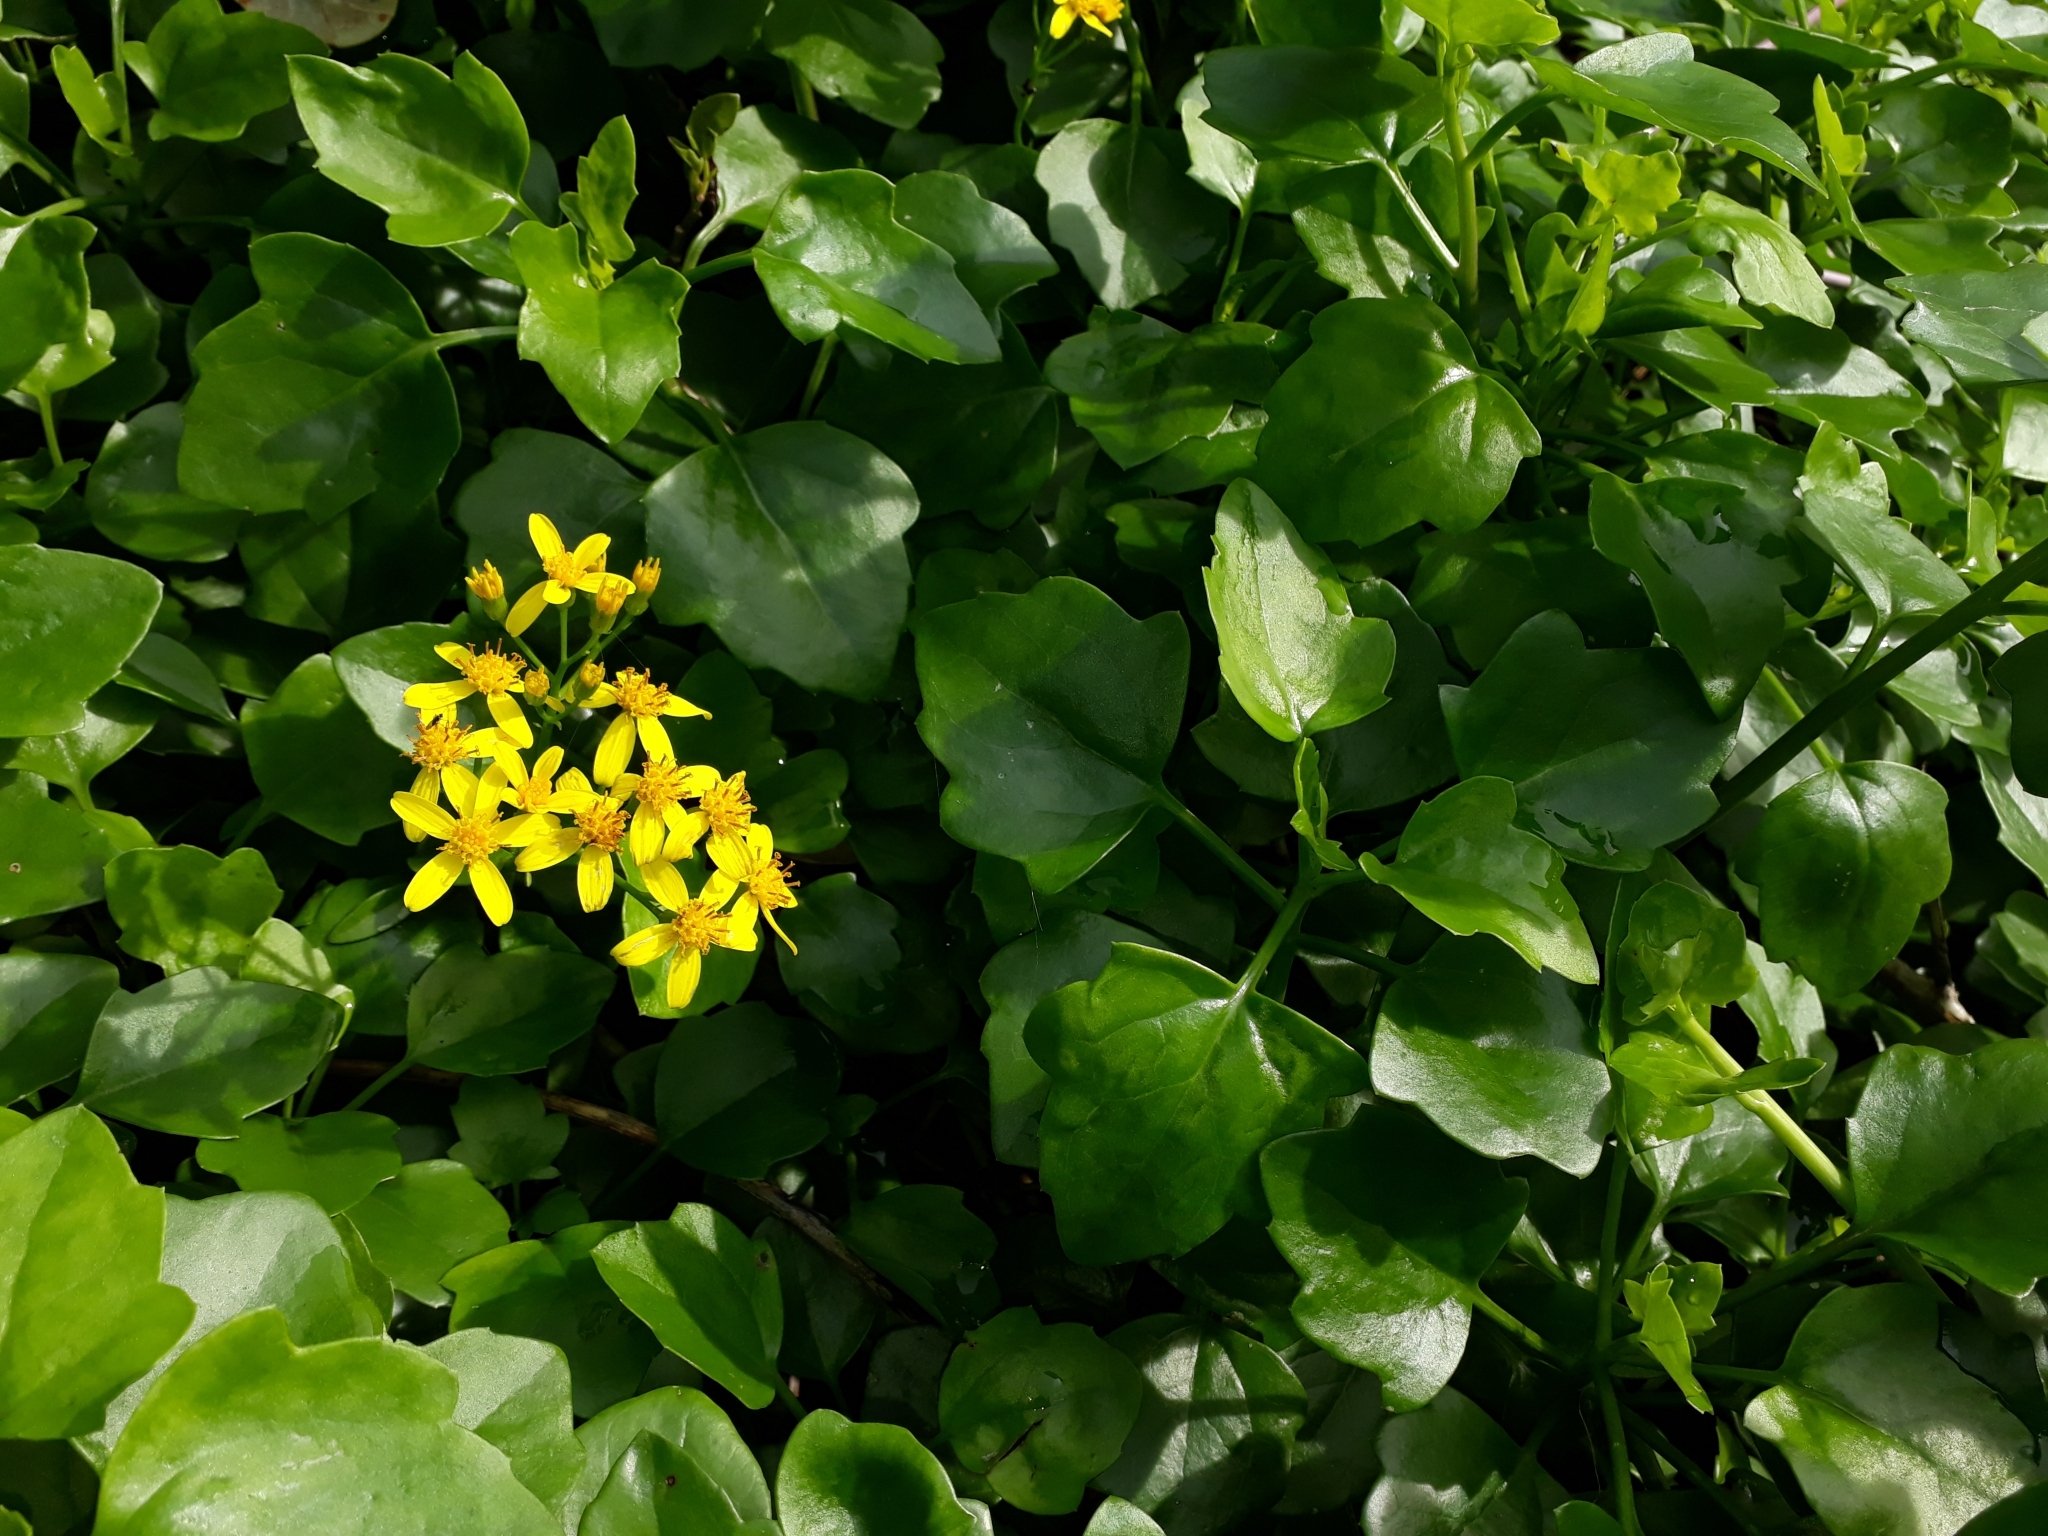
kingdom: Plantae
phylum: Tracheophyta
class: Magnoliopsida
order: Asterales
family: Asteraceae
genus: Senecio
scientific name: Senecio angulatus
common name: Climbing groundsel
